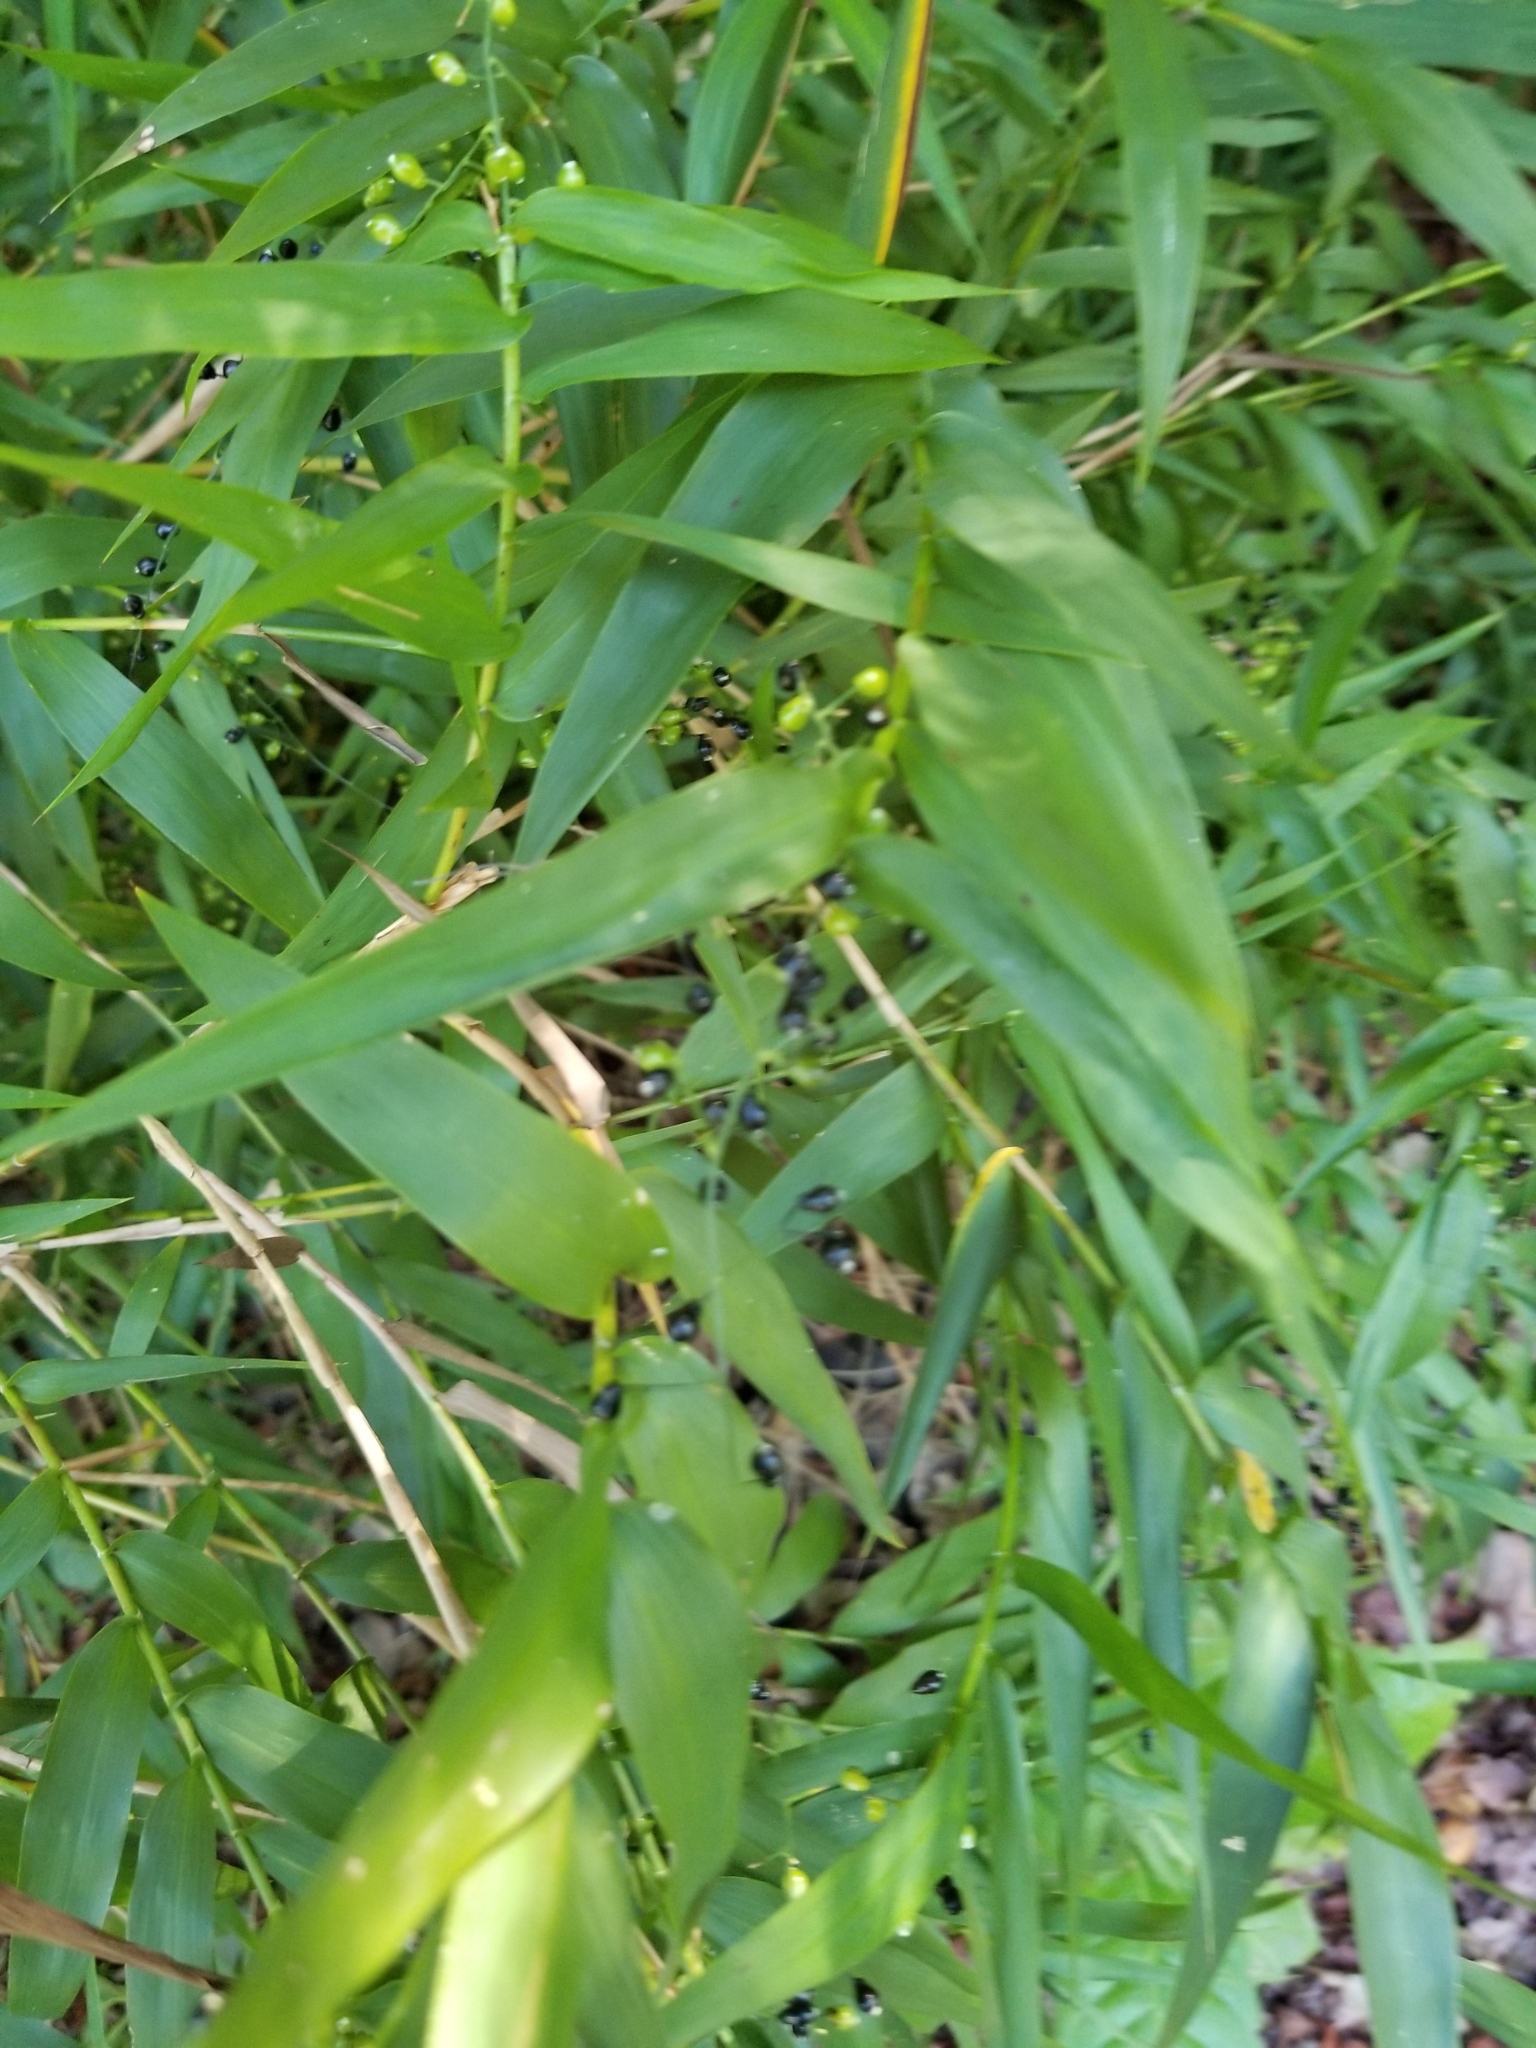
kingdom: Plantae
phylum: Tracheophyta
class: Liliopsida
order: Poales
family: Poaceae
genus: Lasiacis
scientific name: Lasiacis divaricata
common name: Smallcane
